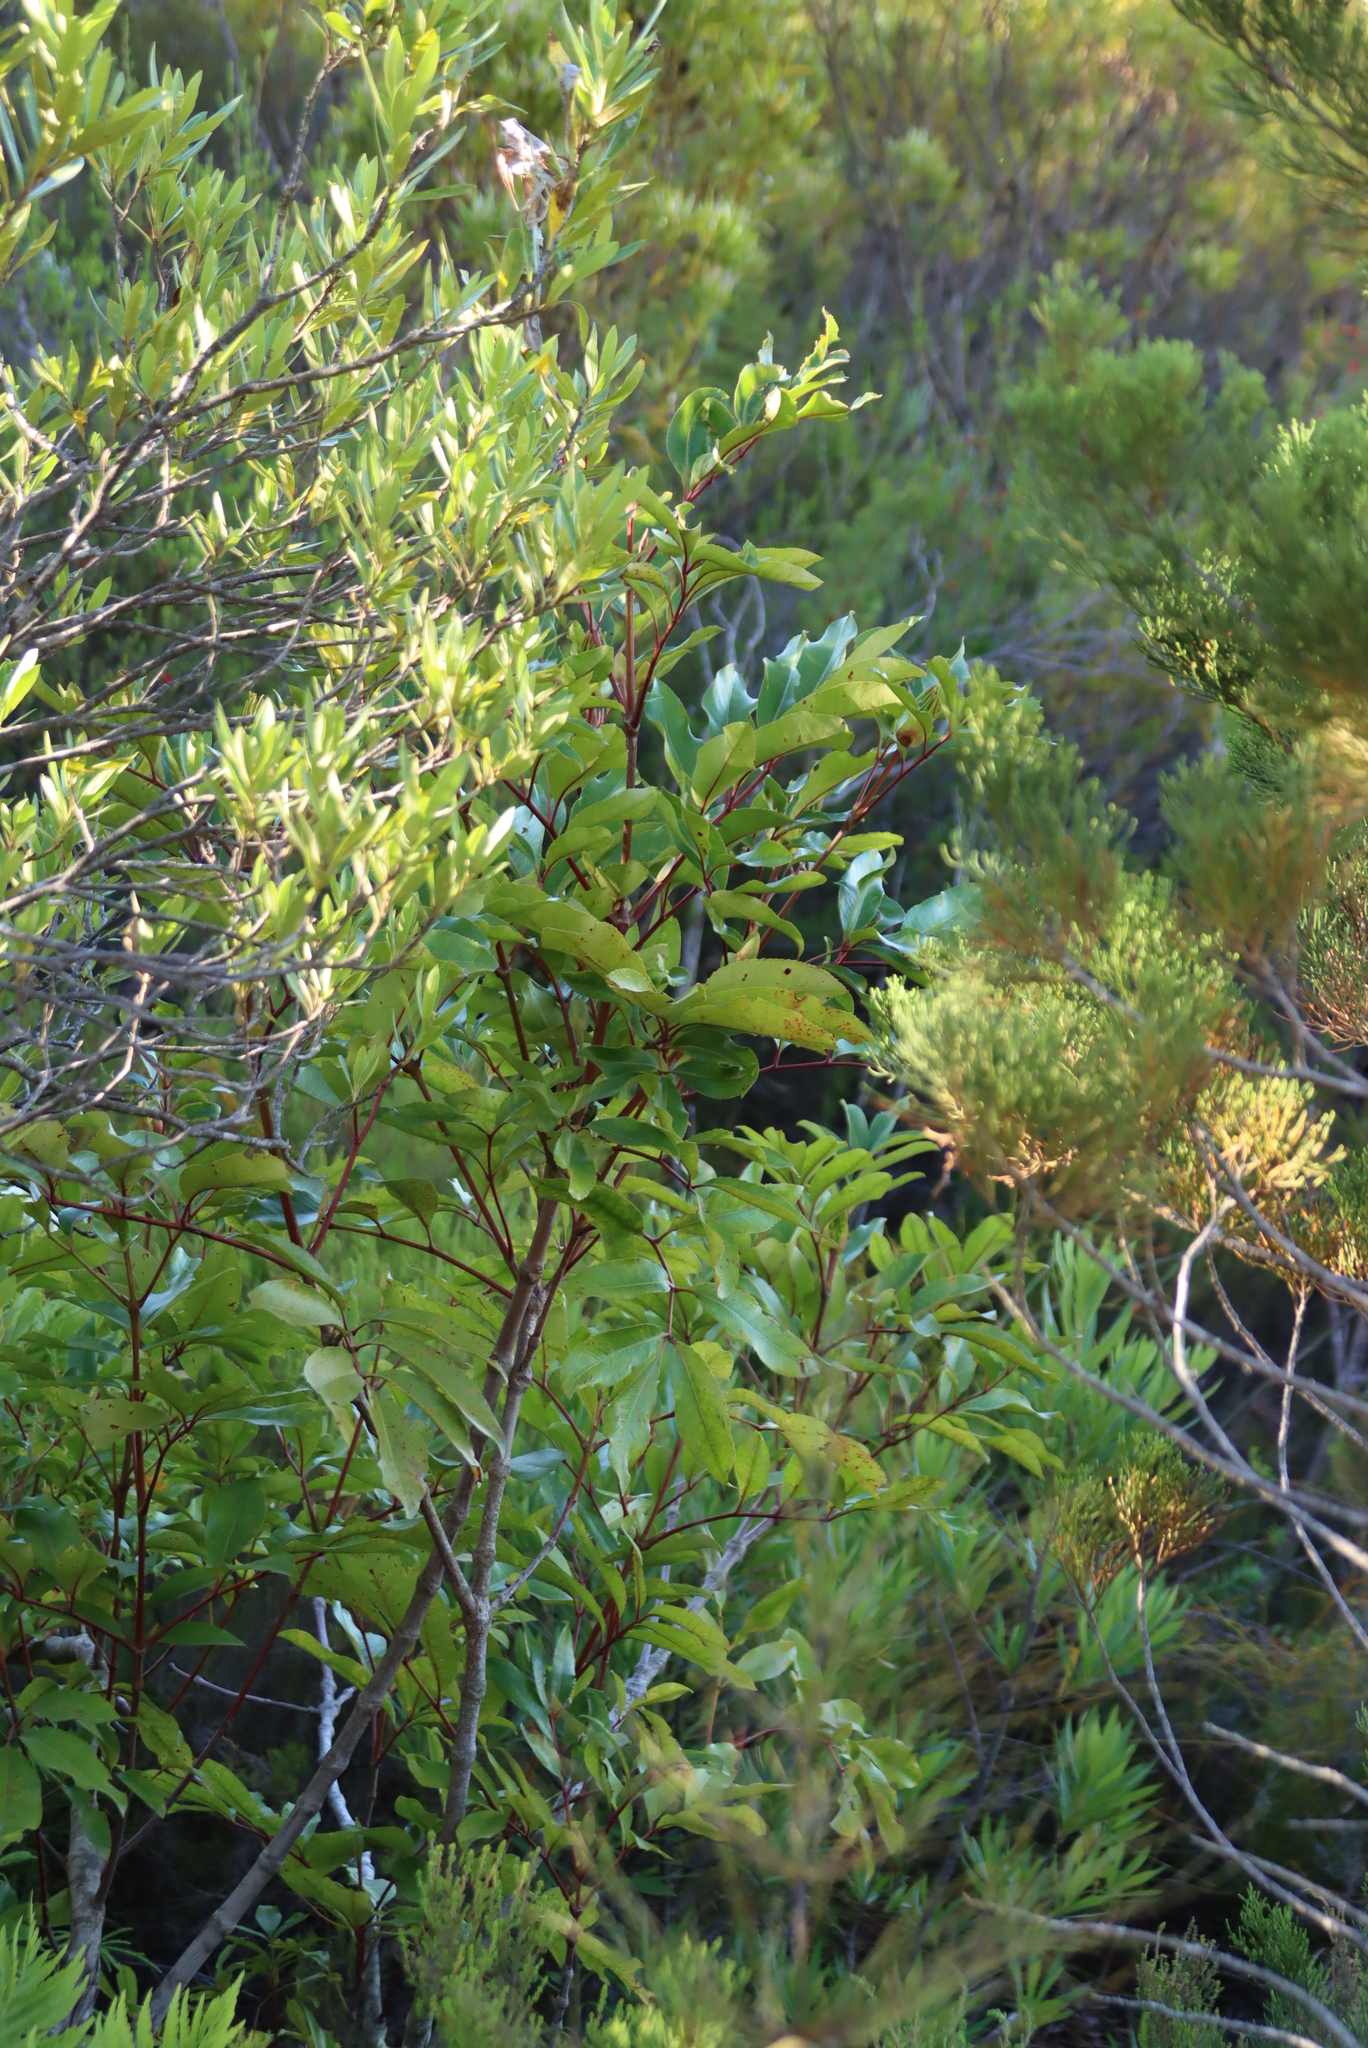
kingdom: Plantae
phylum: Tracheophyta
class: Magnoliopsida
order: Oxalidales
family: Cunoniaceae
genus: Cunonia
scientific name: Cunonia capensis
